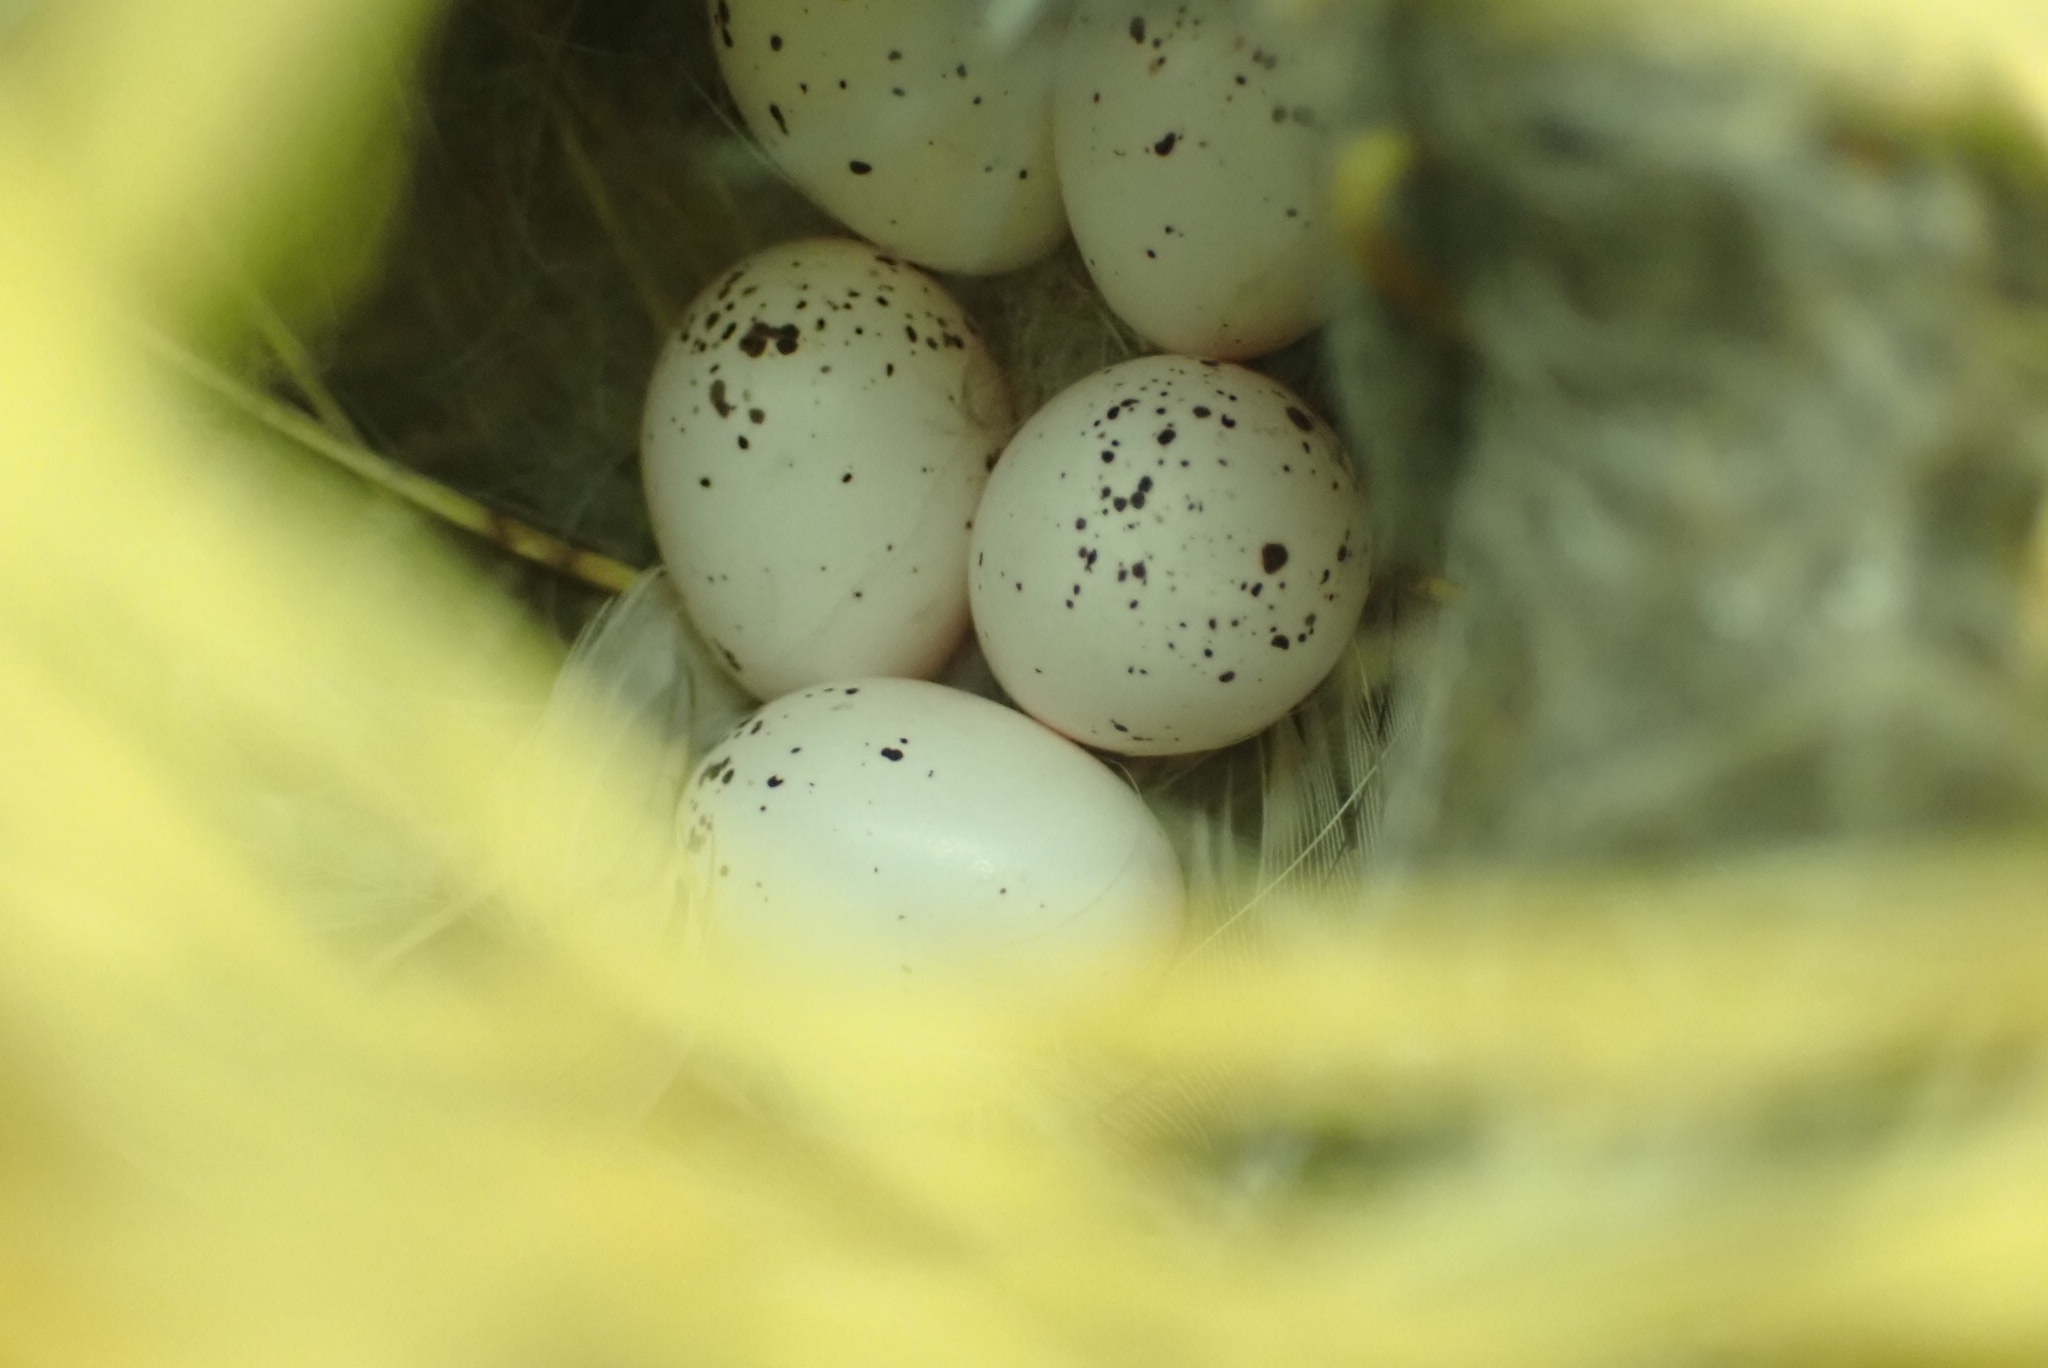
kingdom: Animalia
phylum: Chordata
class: Aves
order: Passeriformes
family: Phylloscopidae
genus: Phylloscopus
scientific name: Phylloscopus collybita
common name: Common chiffchaff
